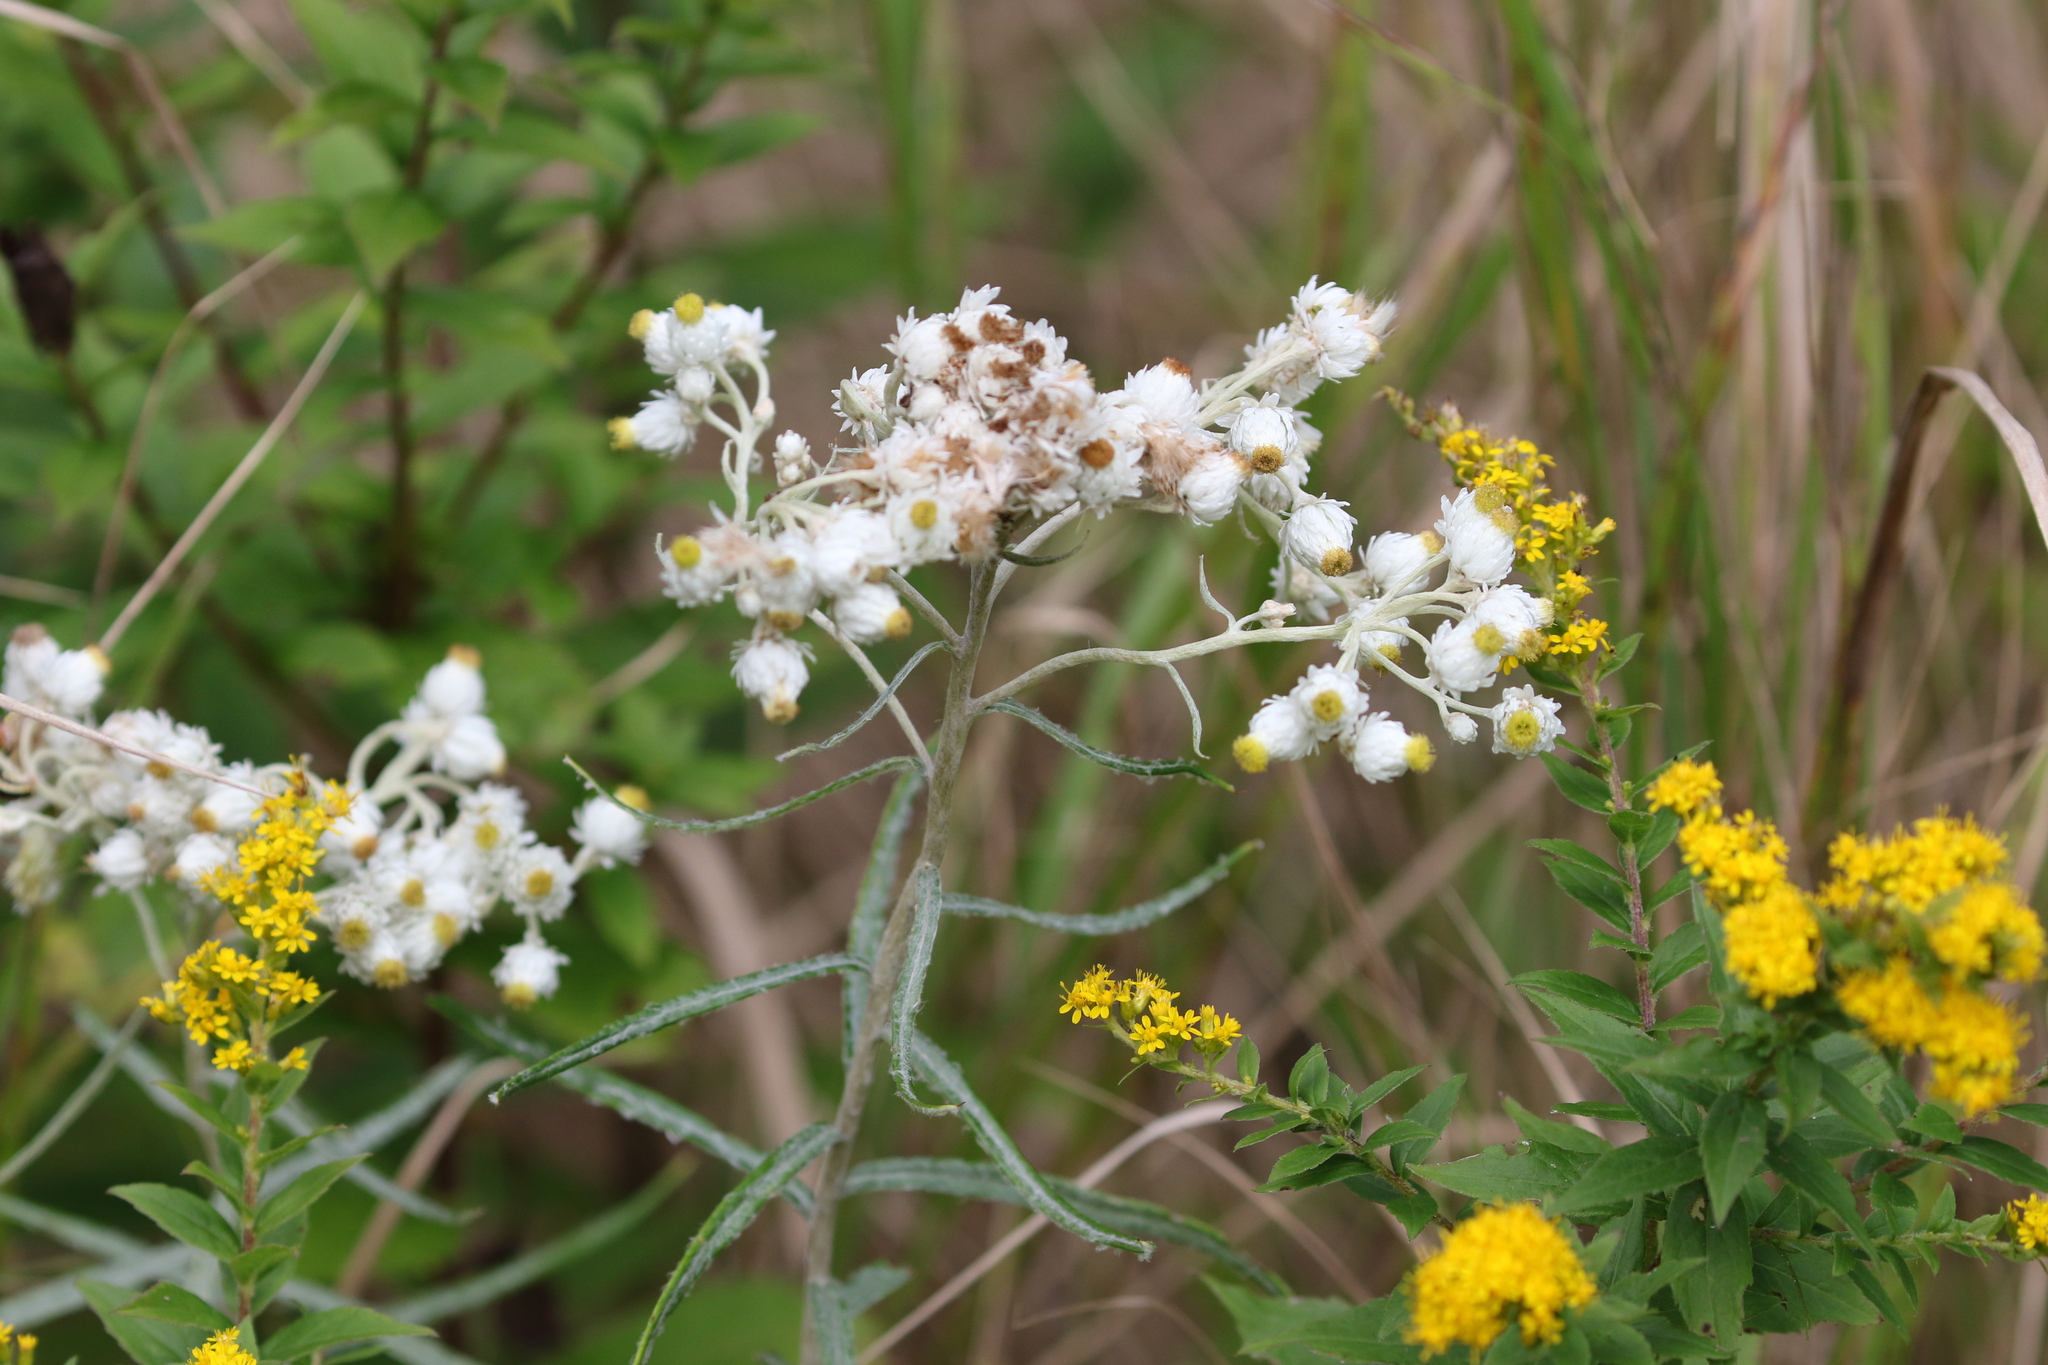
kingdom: Plantae
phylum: Tracheophyta
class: Magnoliopsida
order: Asterales
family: Asteraceae
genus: Anaphalis
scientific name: Anaphalis margaritacea
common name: Pearly everlasting
